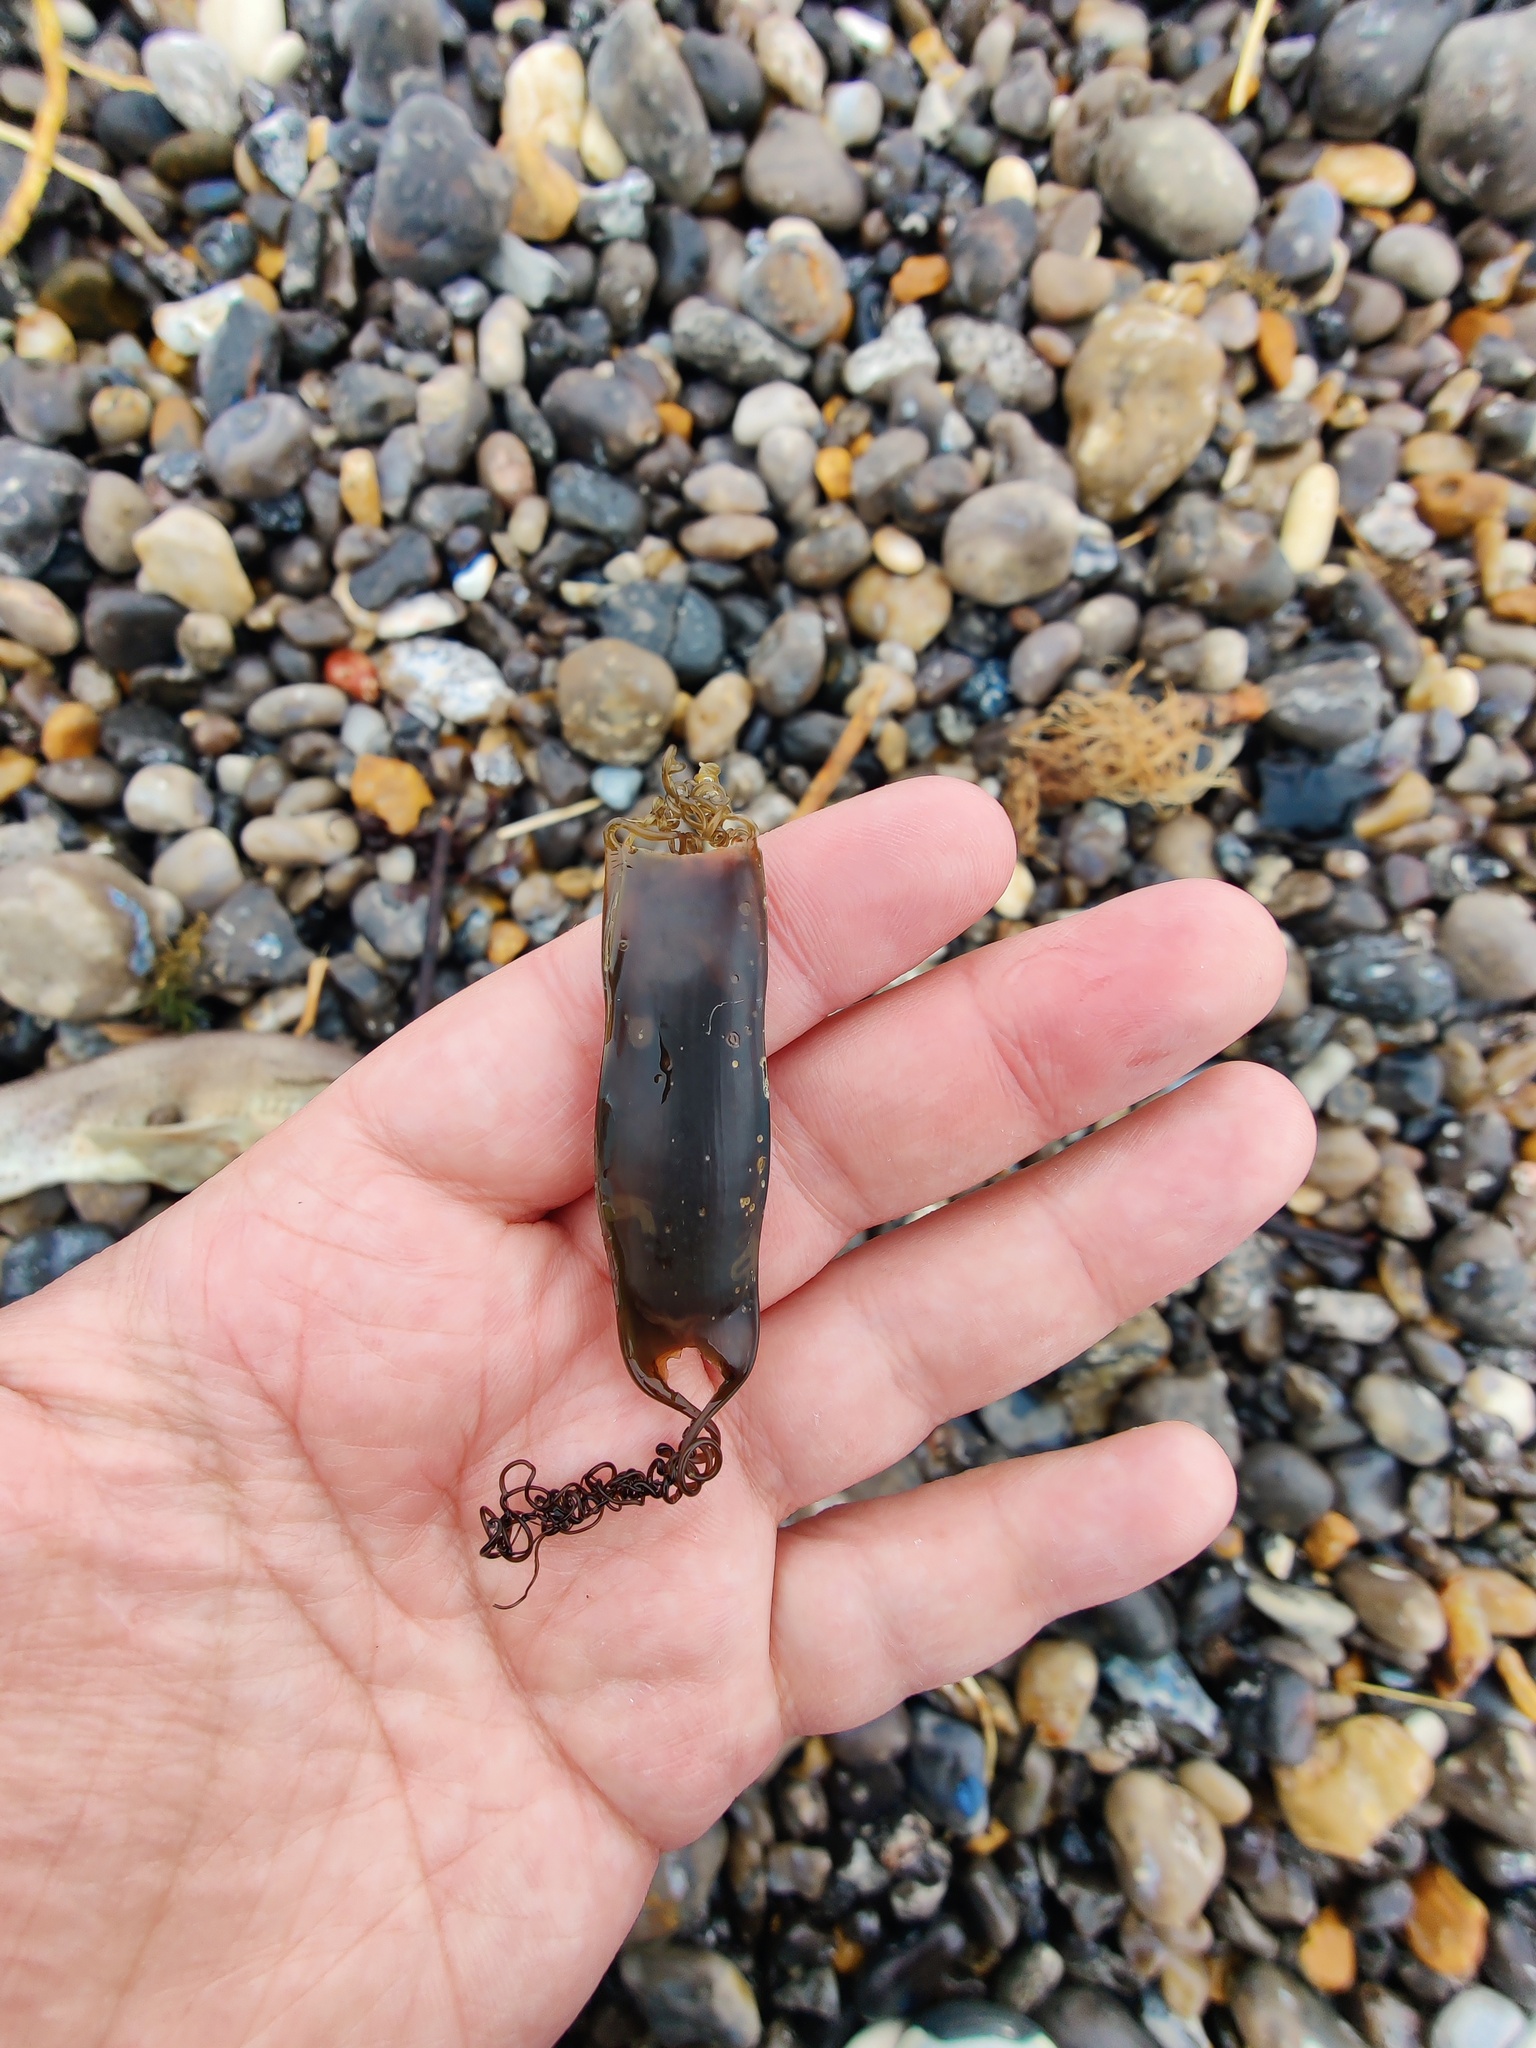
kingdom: Animalia
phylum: Chordata
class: Elasmobranchii
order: Carcharhiniformes
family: Scyliorhinidae
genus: Scyliorhinus
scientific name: Scyliorhinus canicula
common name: Lesser spotted dogfish
